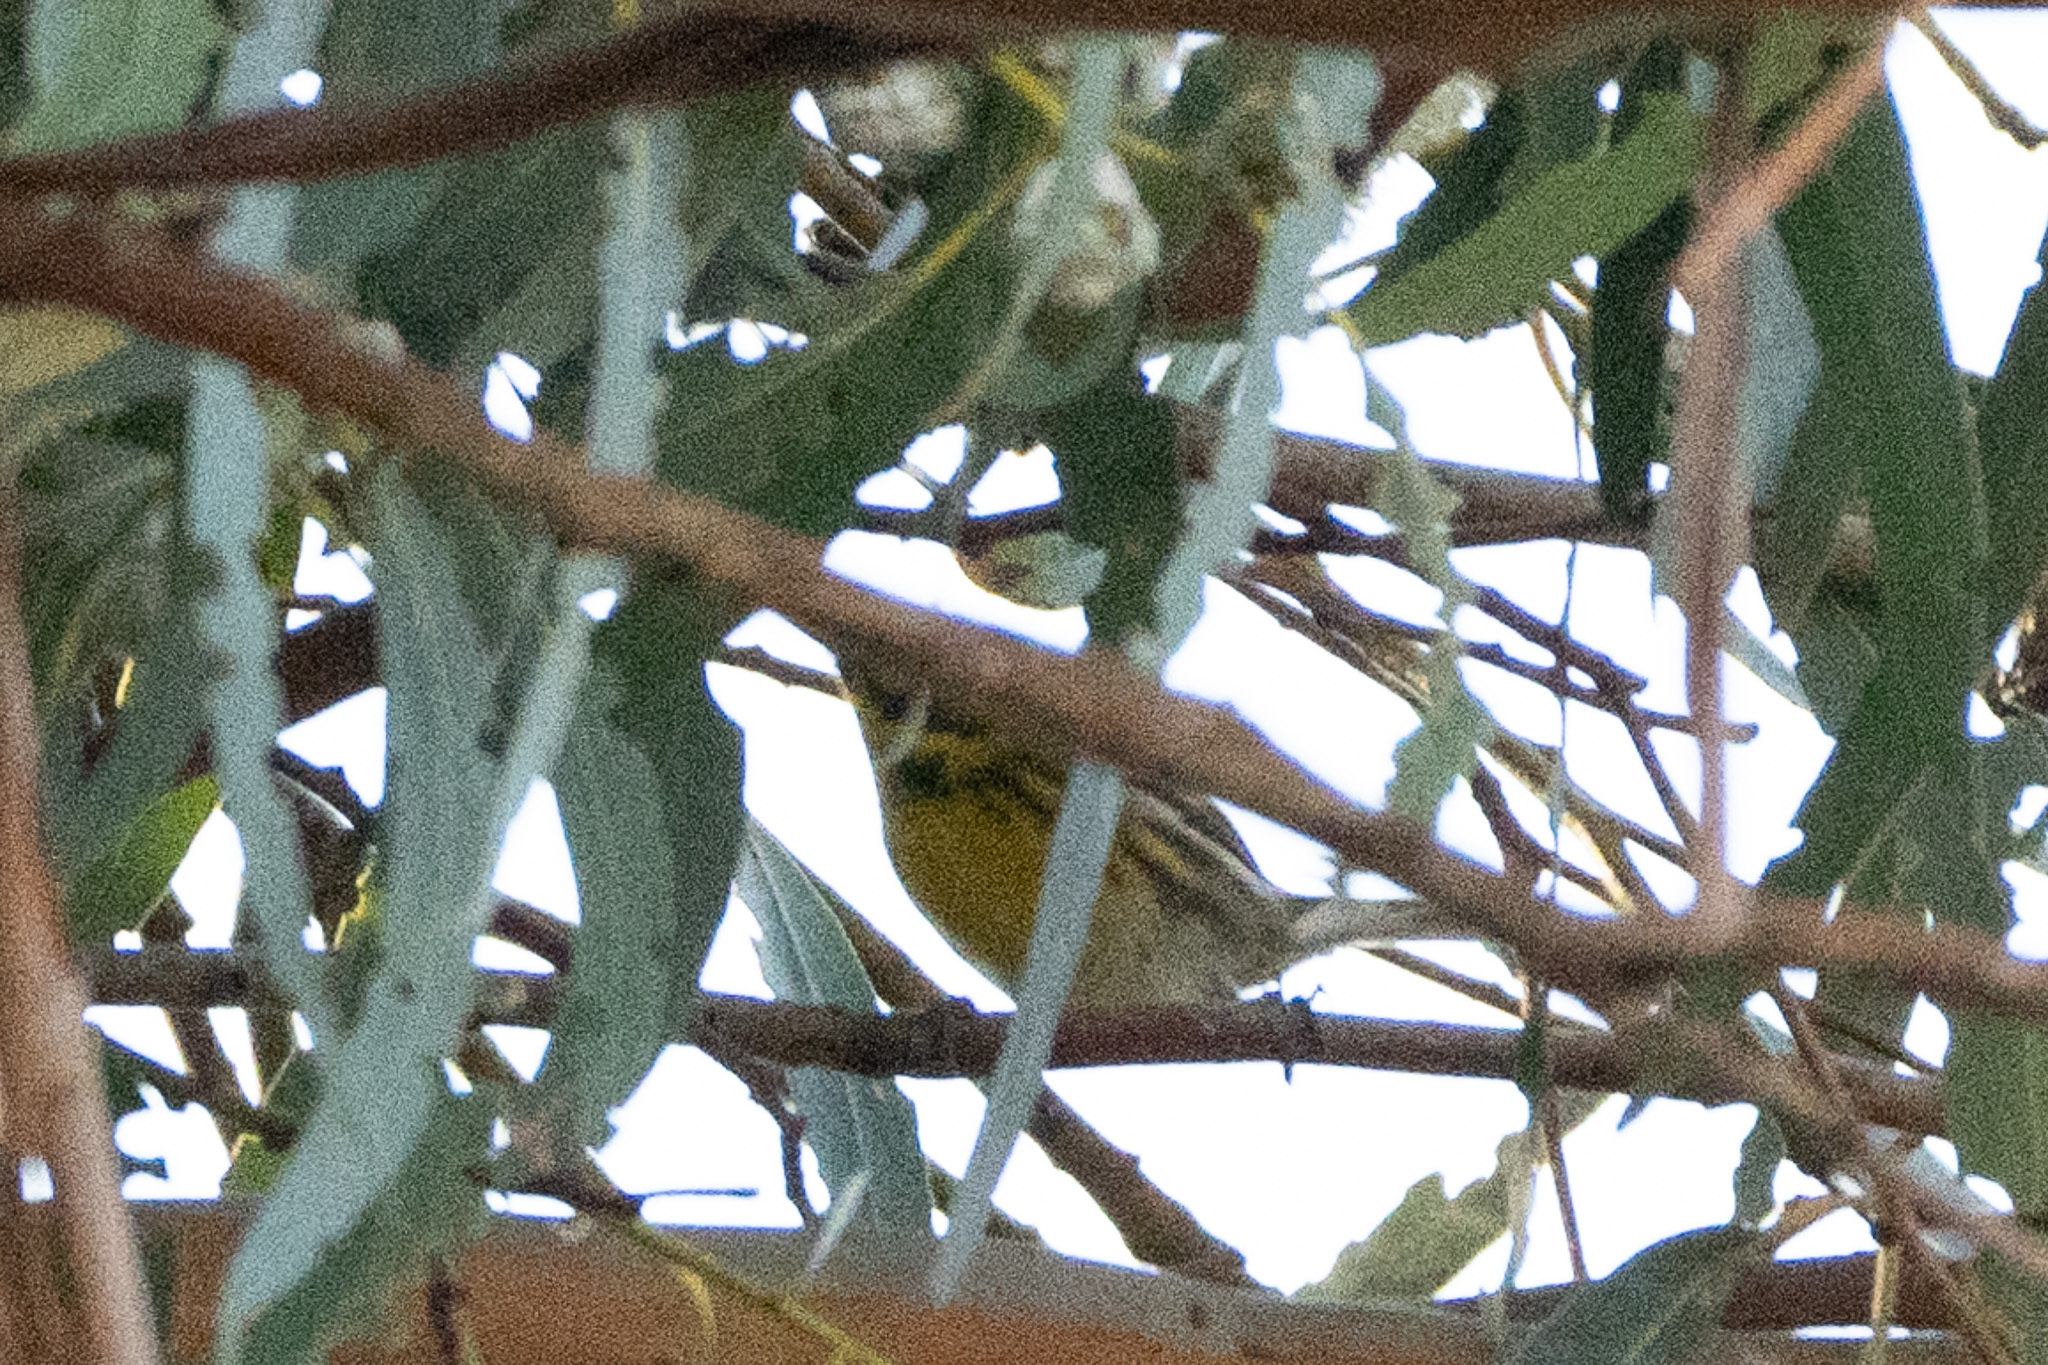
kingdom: Animalia
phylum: Chordata
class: Aves
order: Passeriformes
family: Parulidae
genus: Setophaga
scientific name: Setophaga townsendi
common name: Townsend's warbler
